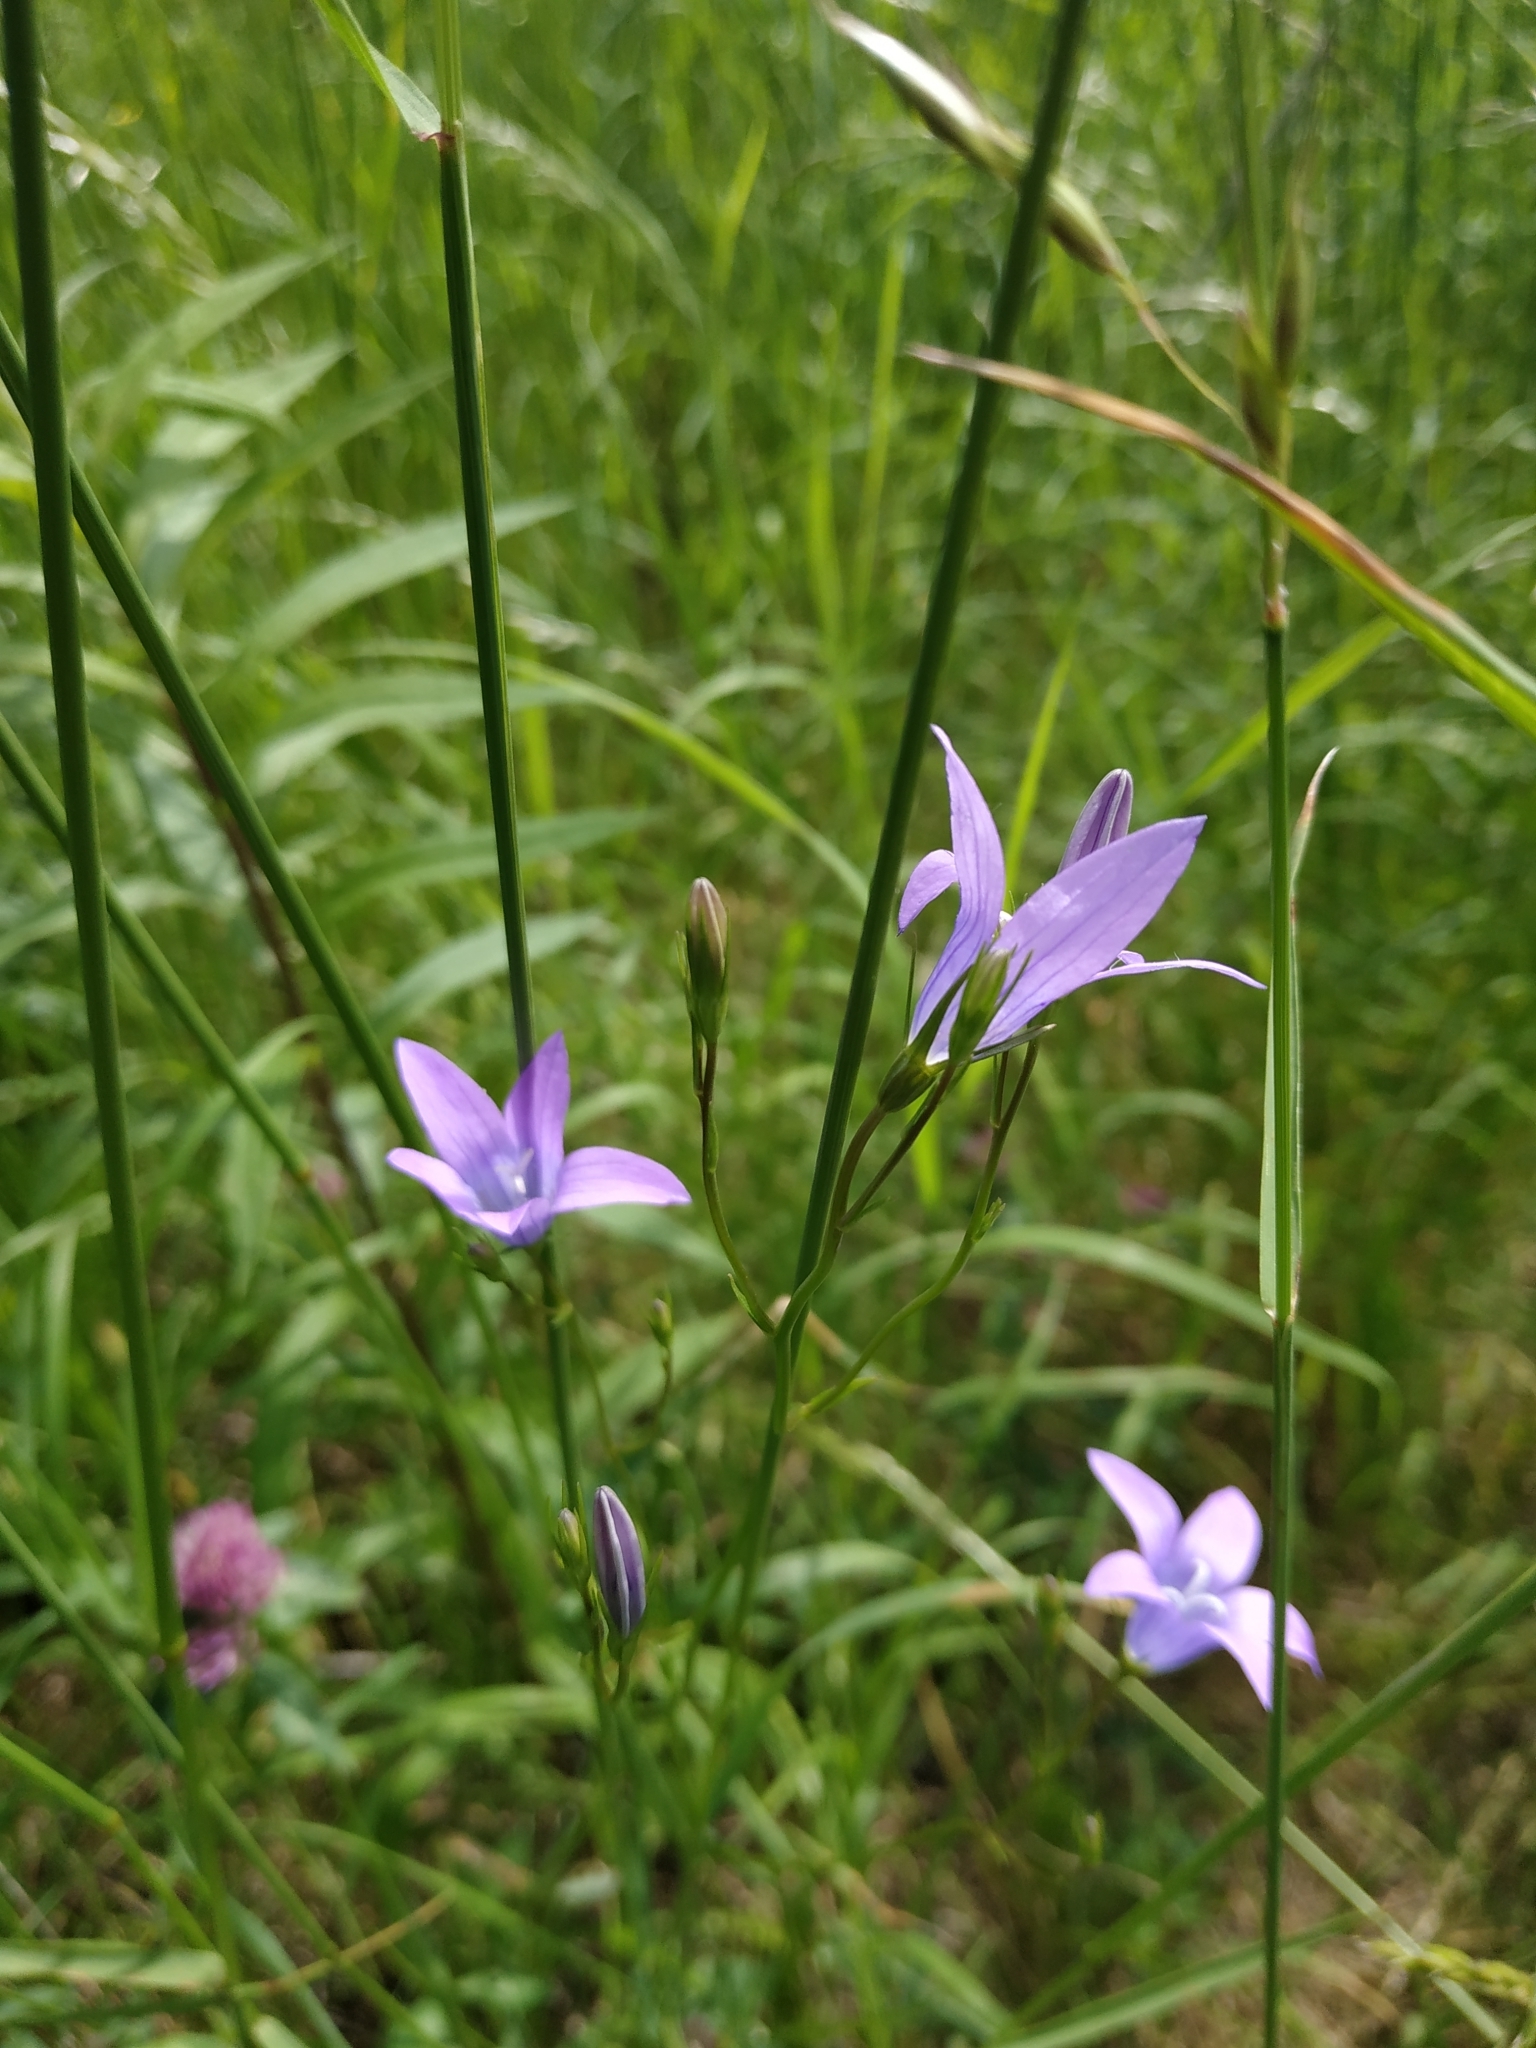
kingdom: Plantae
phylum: Tracheophyta
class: Magnoliopsida
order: Asterales
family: Campanulaceae
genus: Campanula
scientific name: Campanula patula
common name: Spreading bellflower
